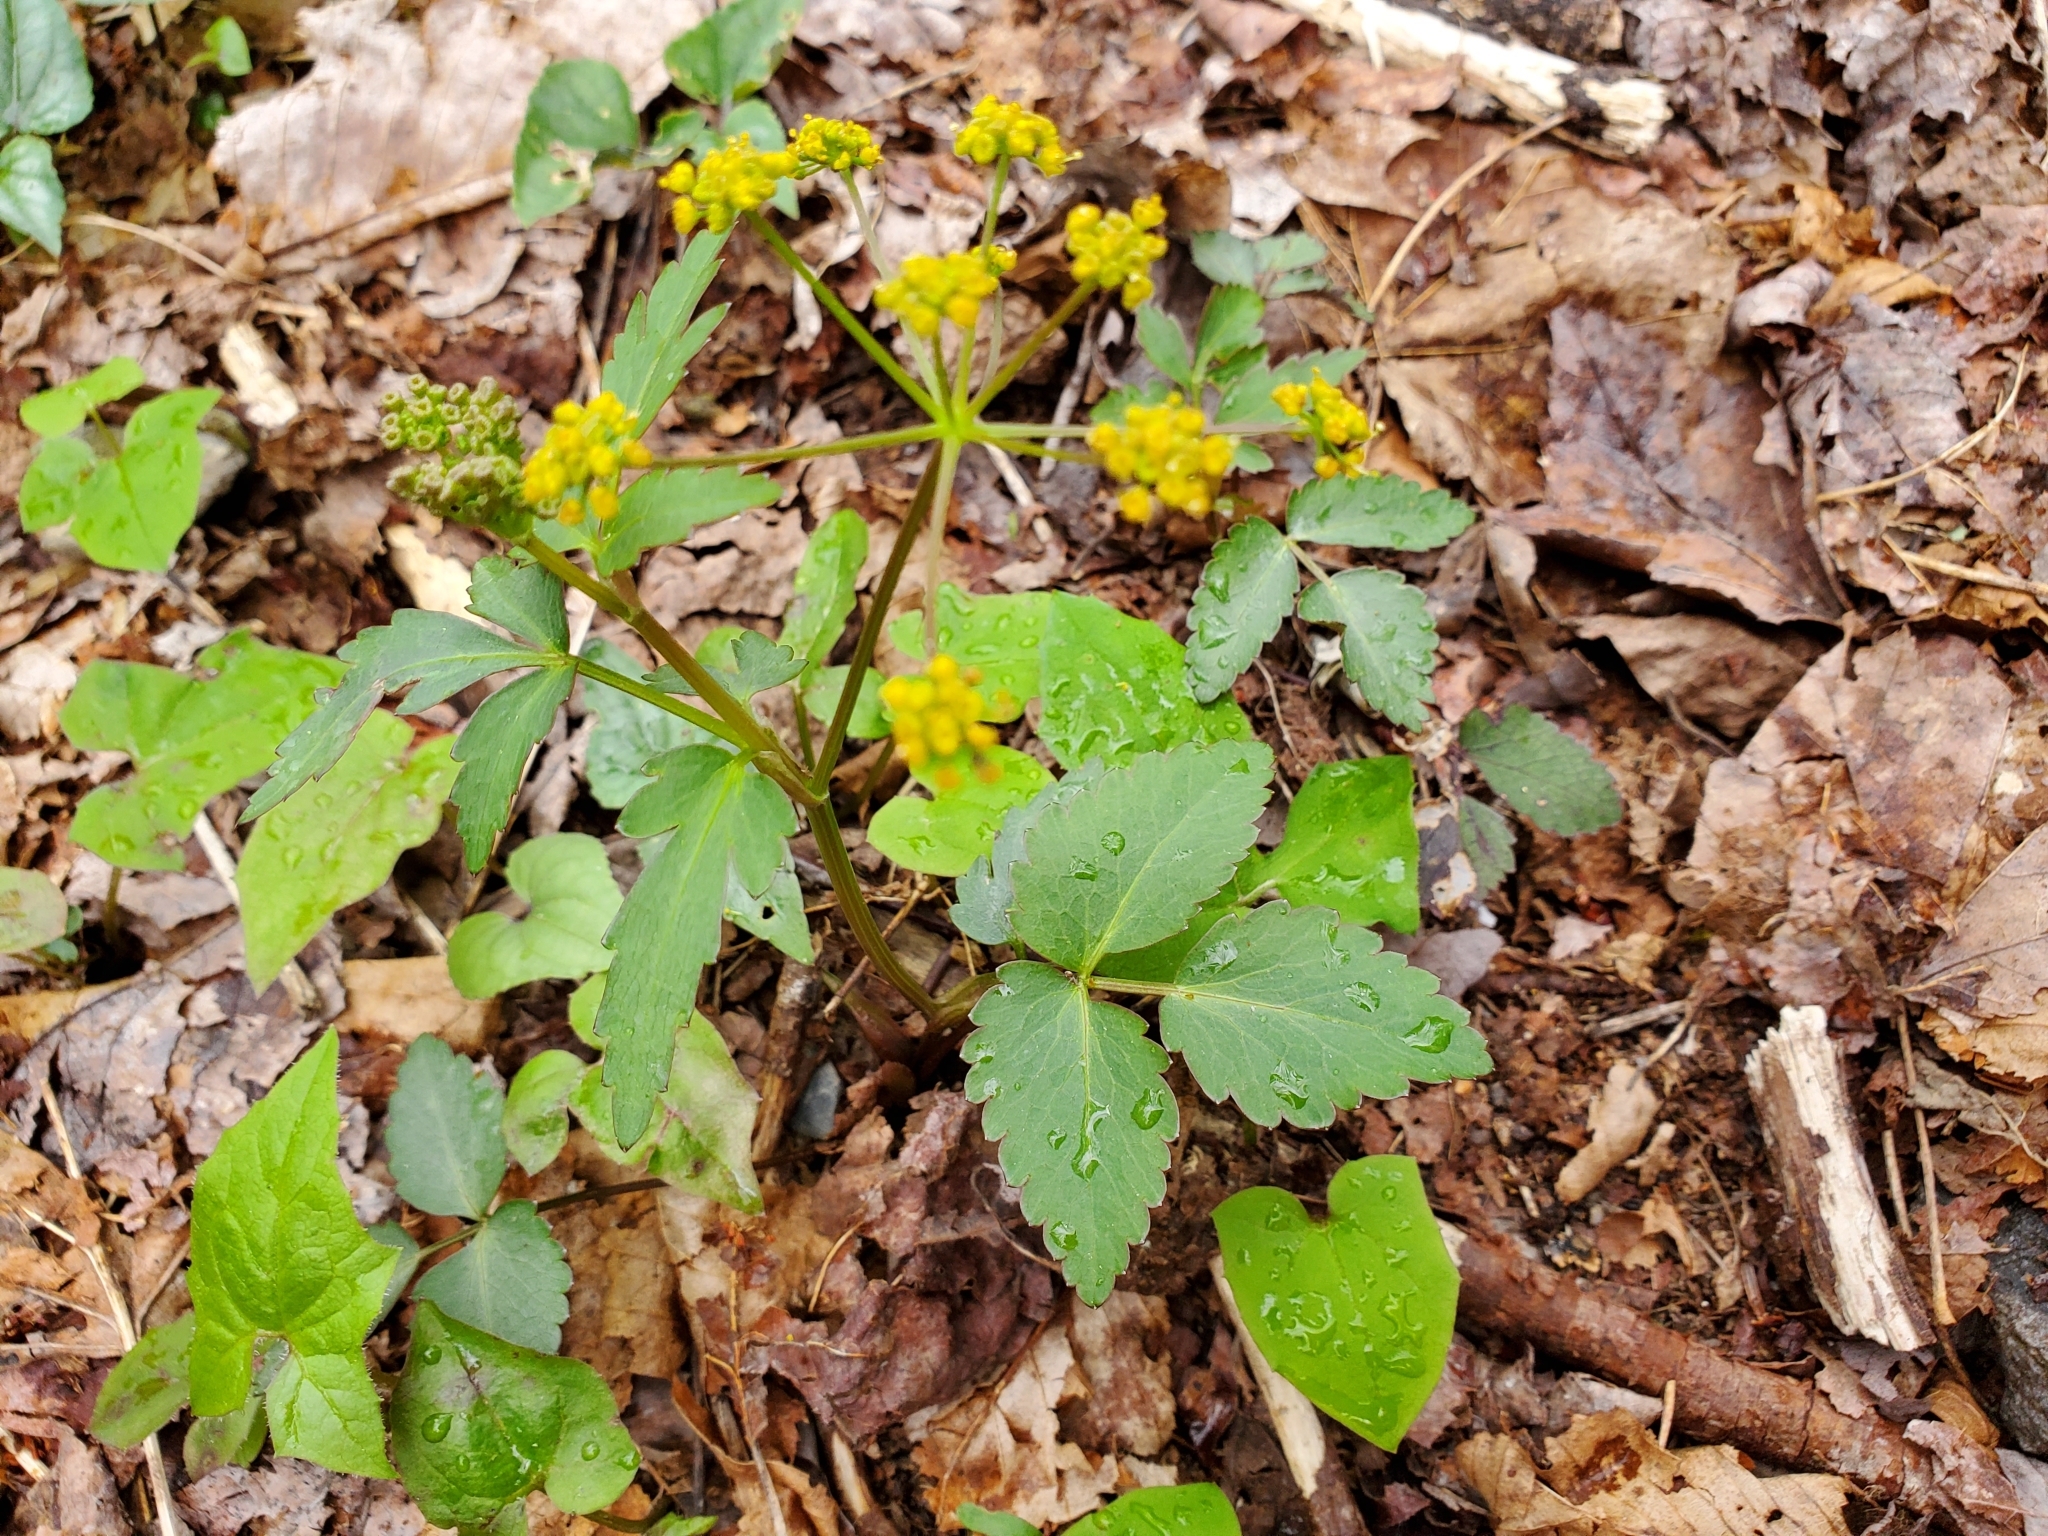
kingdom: Plantae
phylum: Tracheophyta
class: Magnoliopsida
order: Apiales
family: Apiaceae
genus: Zizia
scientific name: Zizia aurea
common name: Golden alexanders
